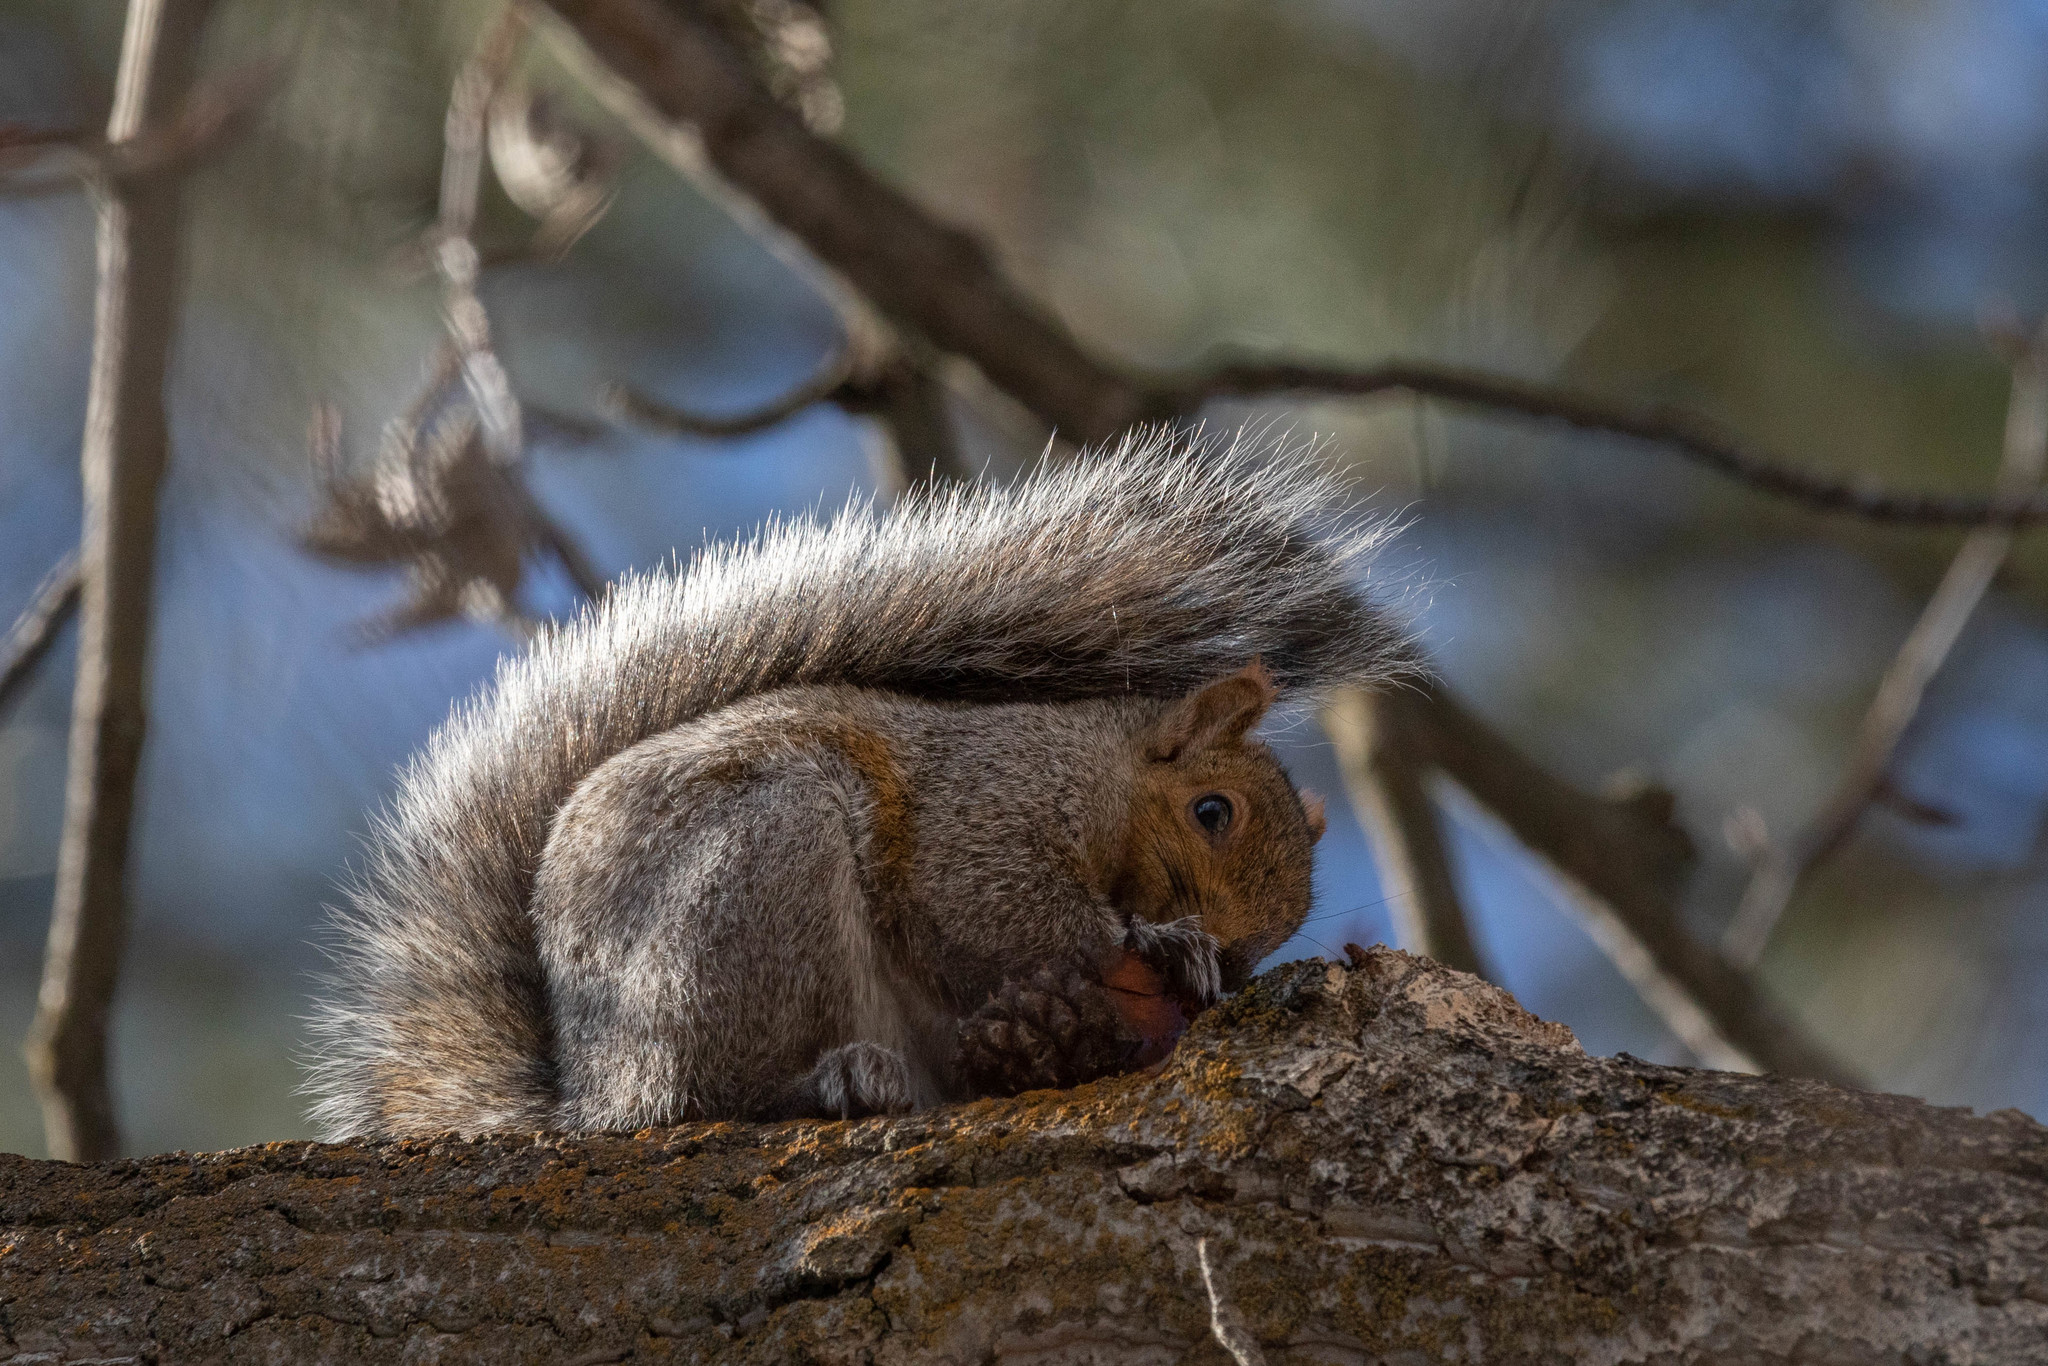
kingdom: Animalia
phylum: Chordata
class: Mammalia
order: Rodentia
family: Sciuridae
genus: Sciurus
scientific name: Sciurus carolinensis
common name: Eastern gray squirrel
